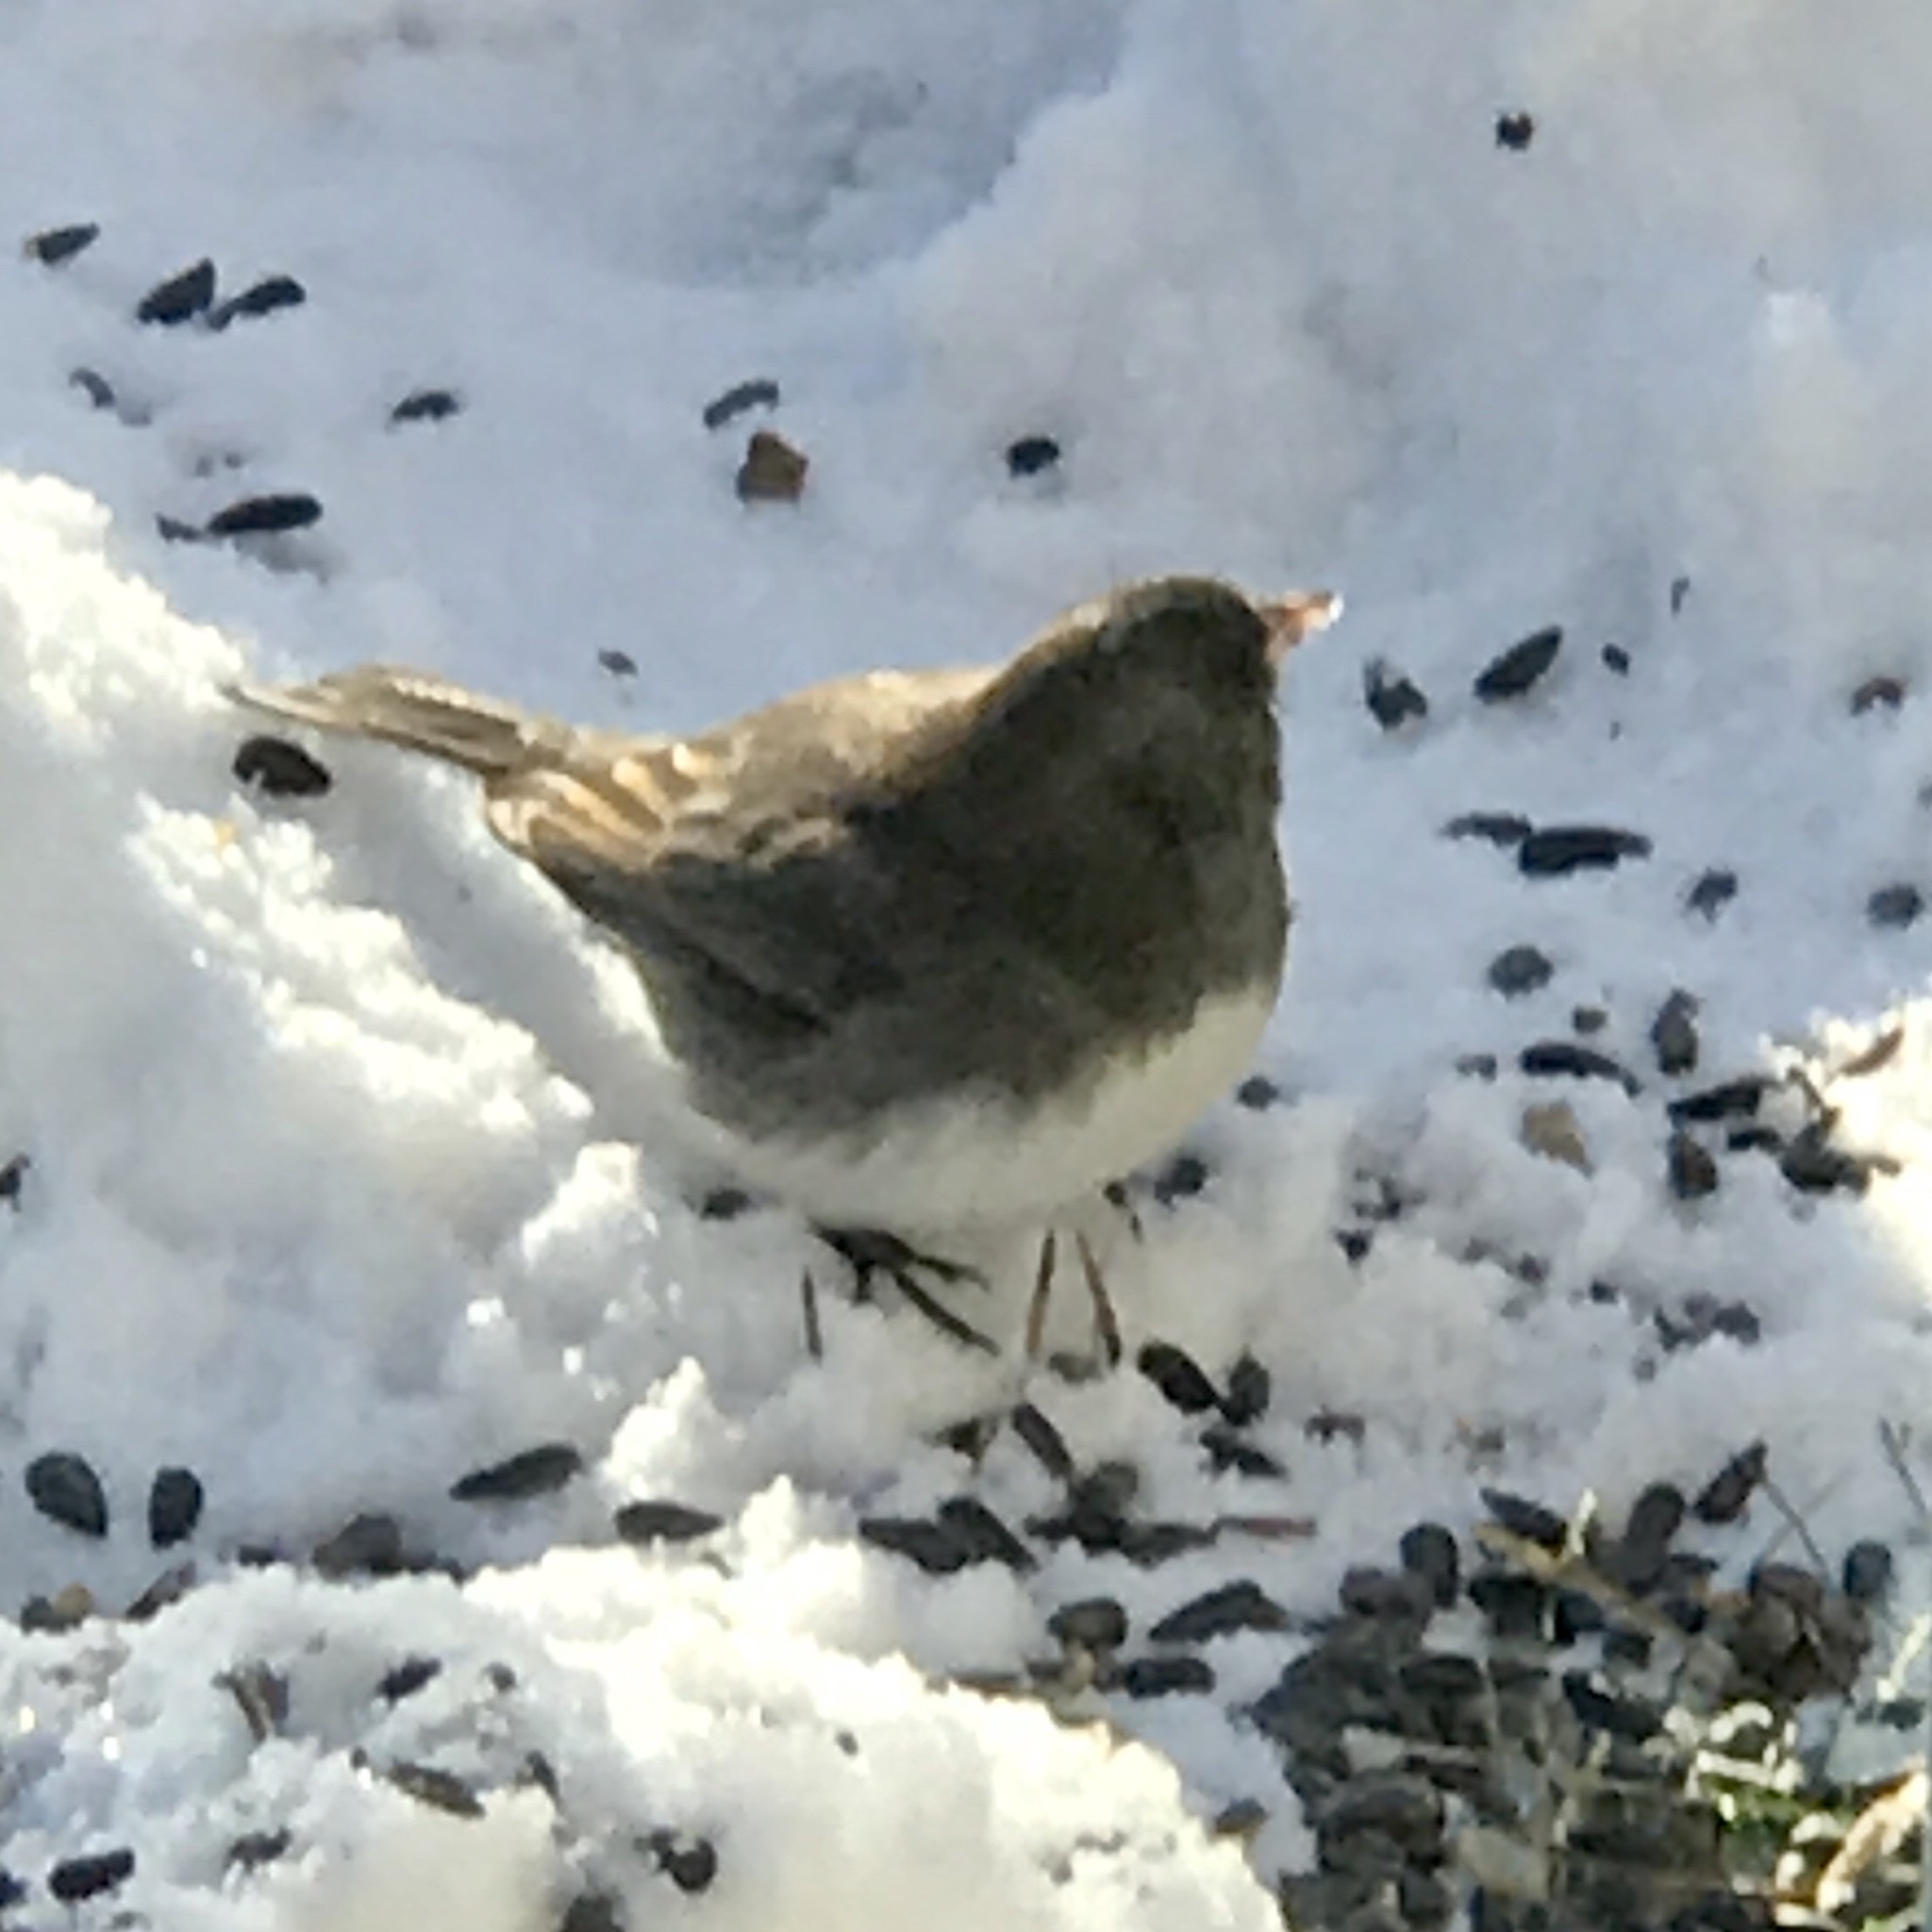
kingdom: Animalia
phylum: Chordata
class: Aves
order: Passeriformes
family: Passerellidae
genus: Junco
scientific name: Junco hyemalis
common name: Dark-eyed junco
